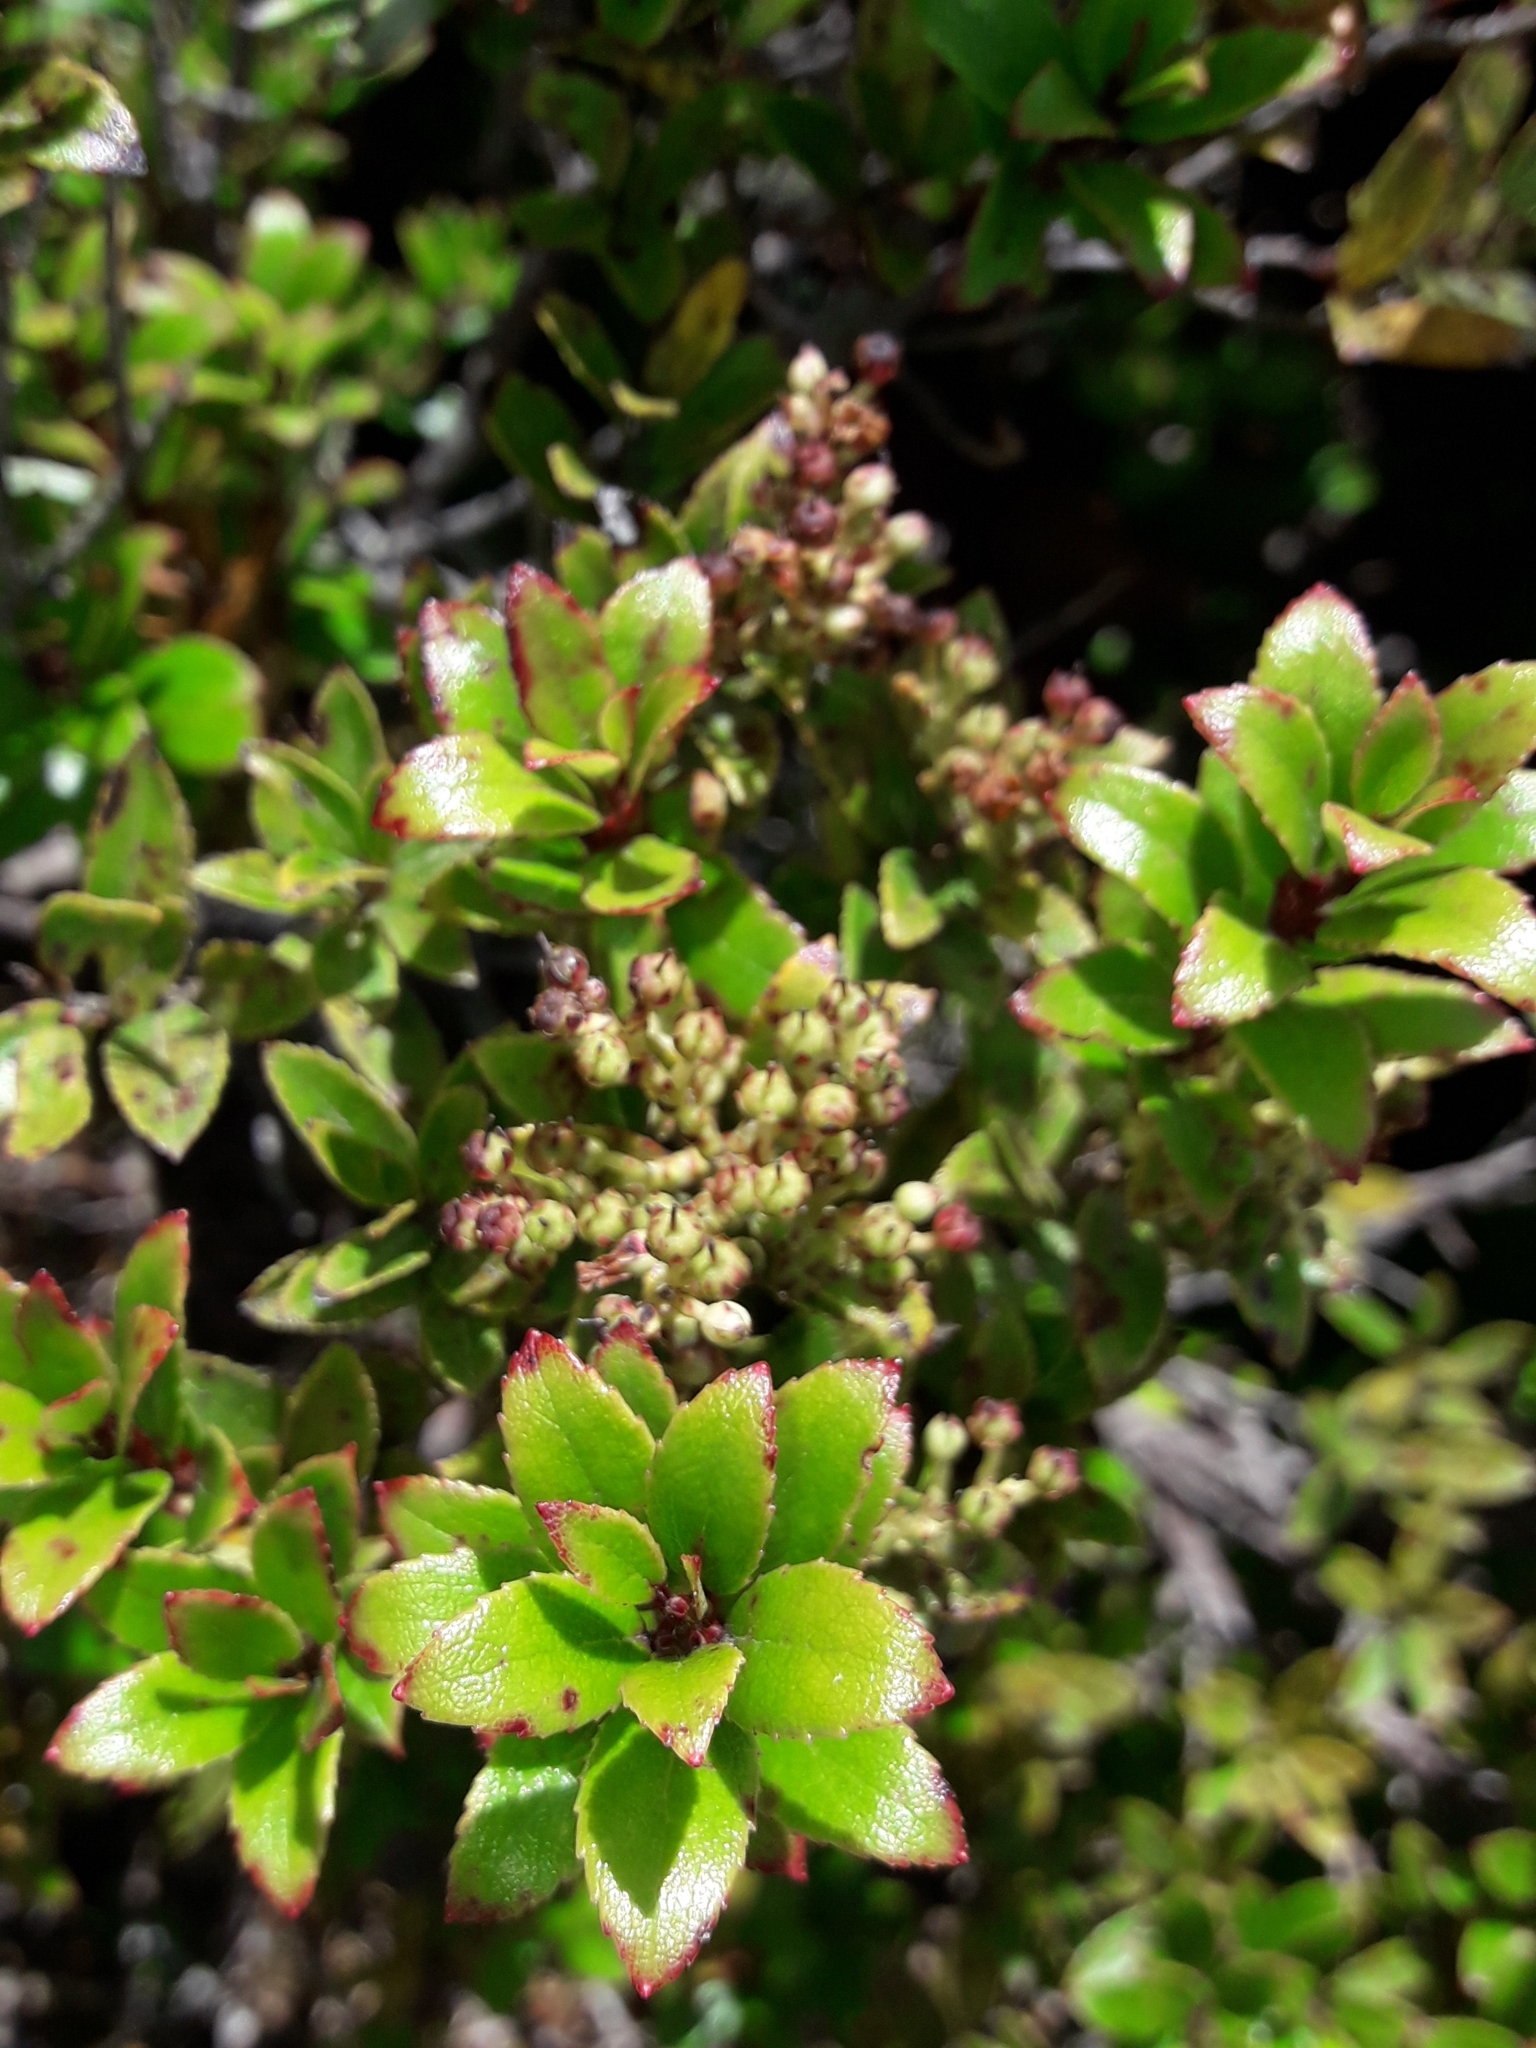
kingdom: Plantae
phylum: Tracheophyta
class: Magnoliopsida
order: Ericales
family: Ericaceae
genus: Gaultheria
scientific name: Gaultheria rupestris
